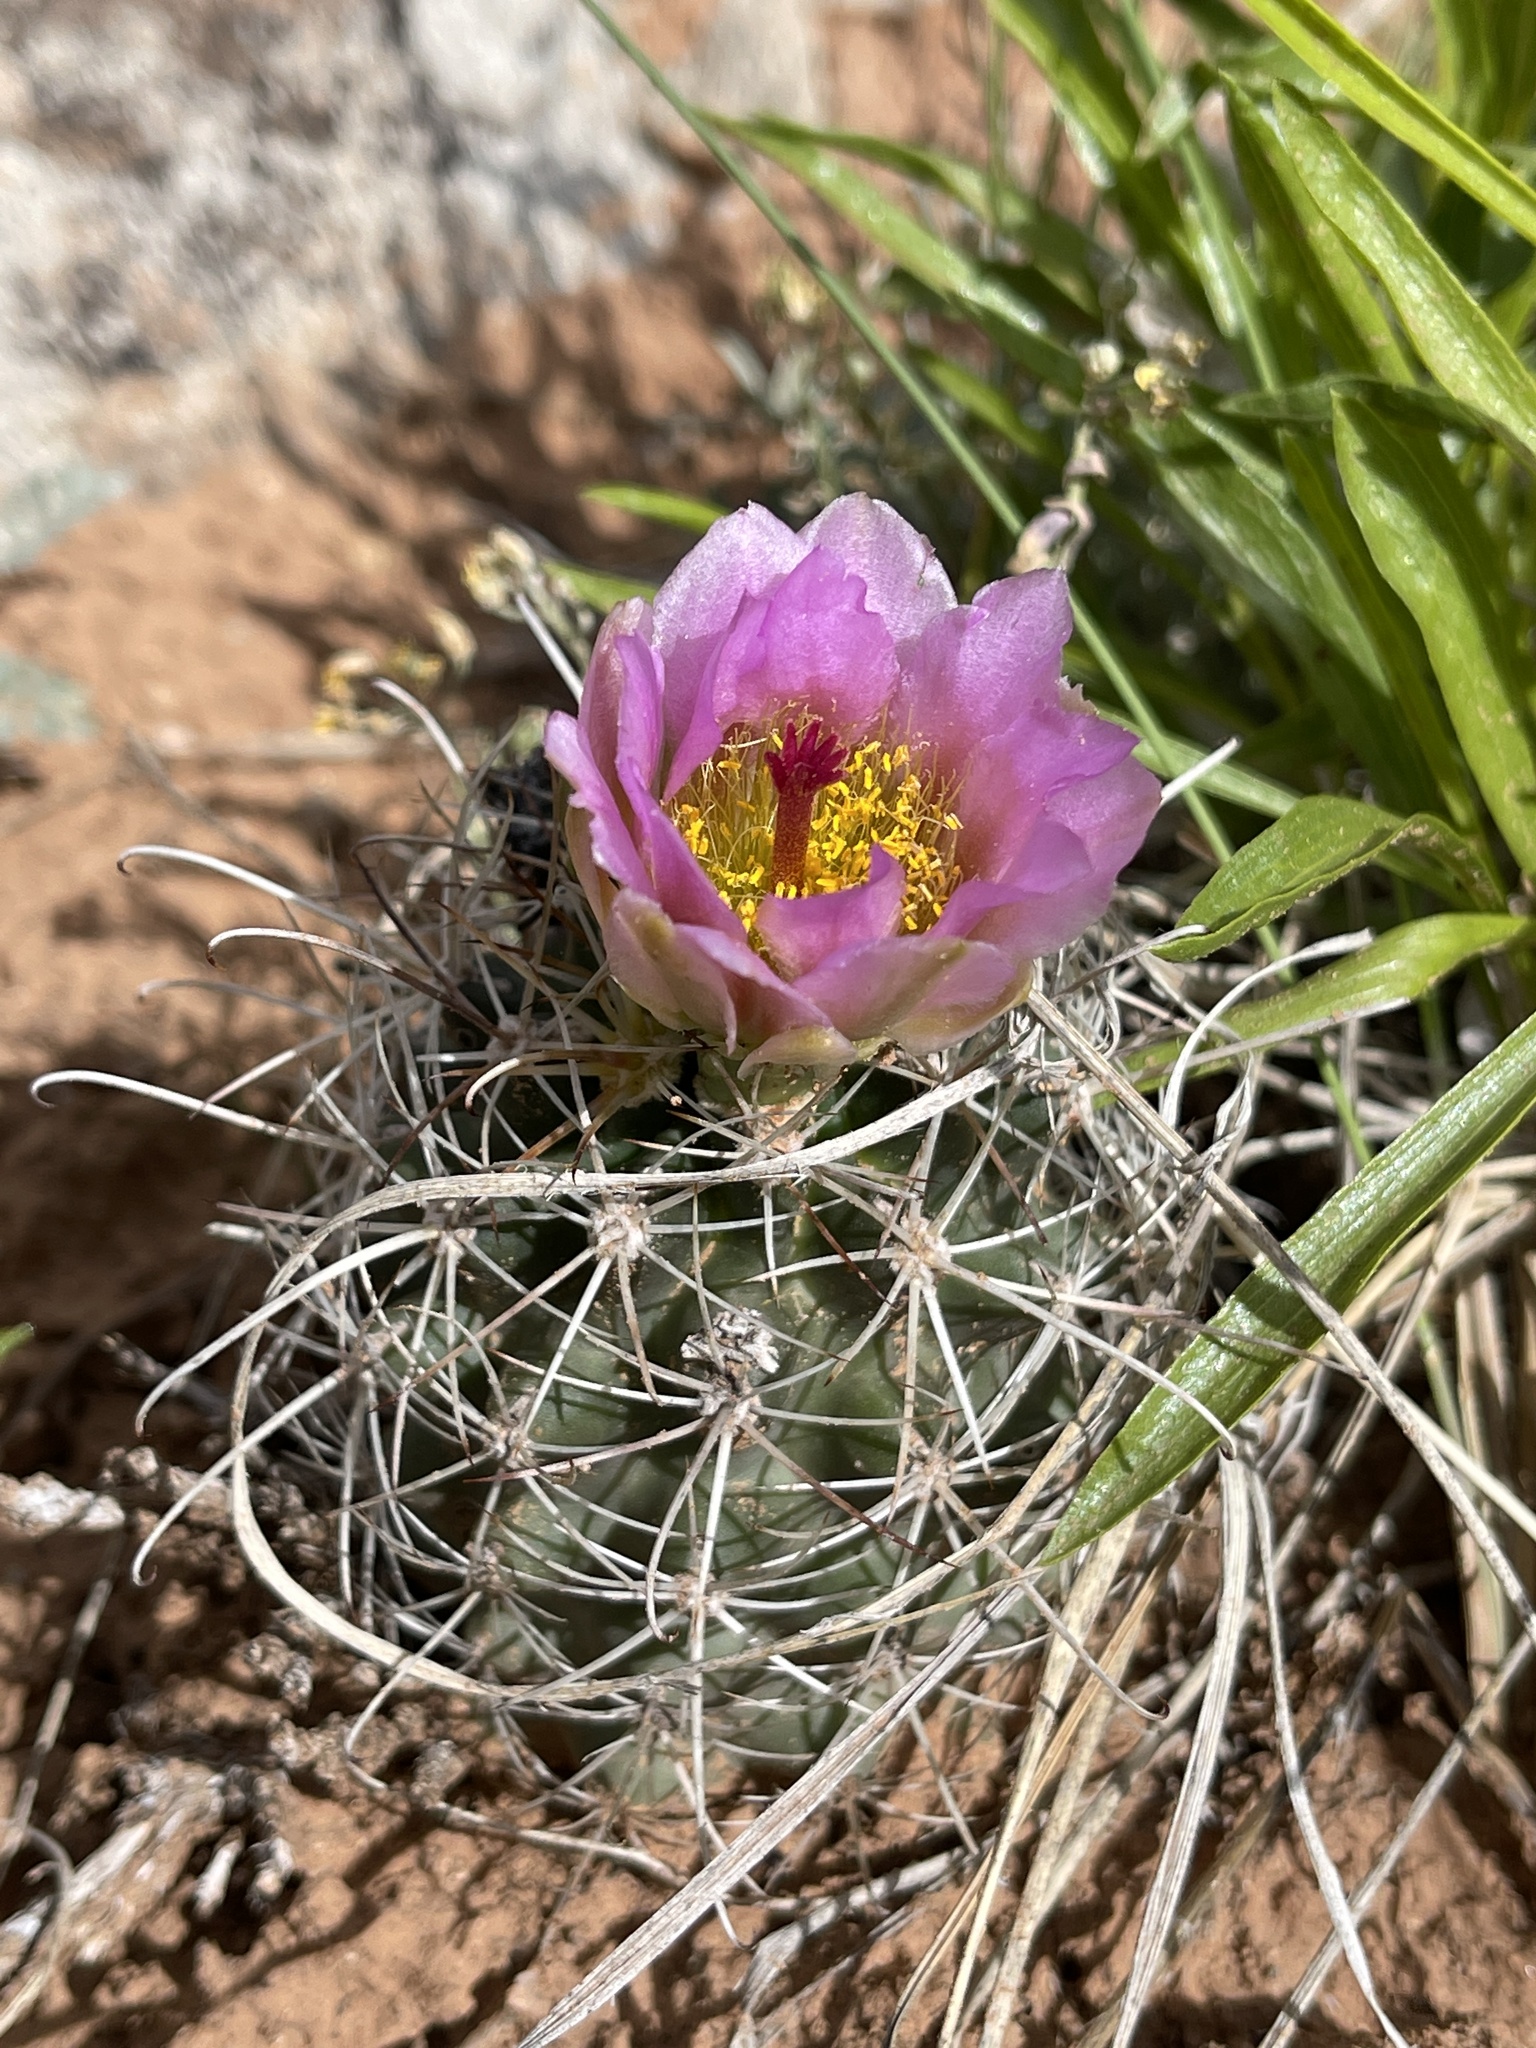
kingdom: Plantae
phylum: Tracheophyta
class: Magnoliopsida
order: Caryophyllales
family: Cactaceae
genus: Sclerocactus
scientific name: Sclerocactus parviflorus
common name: Small-flower fishhook cactus
